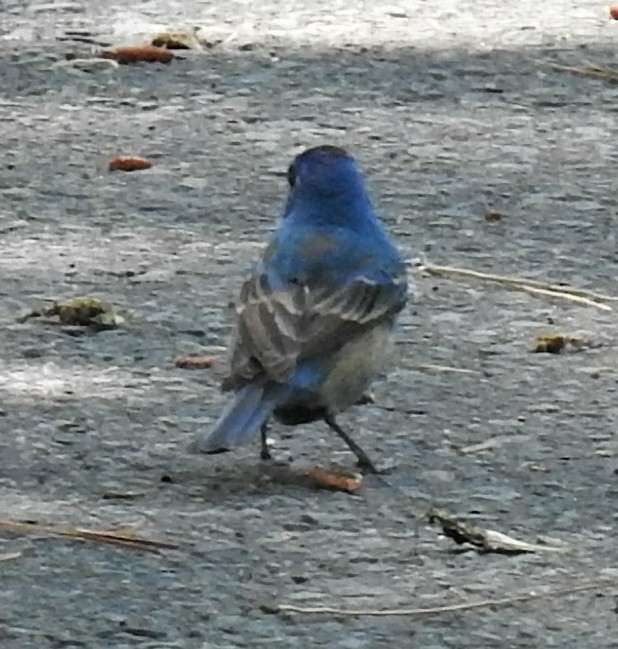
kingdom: Animalia
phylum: Chordata
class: Aves
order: Passeriformes
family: Cardinalidae
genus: Passerina
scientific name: Passerina cyanea
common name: Indigo bunting
